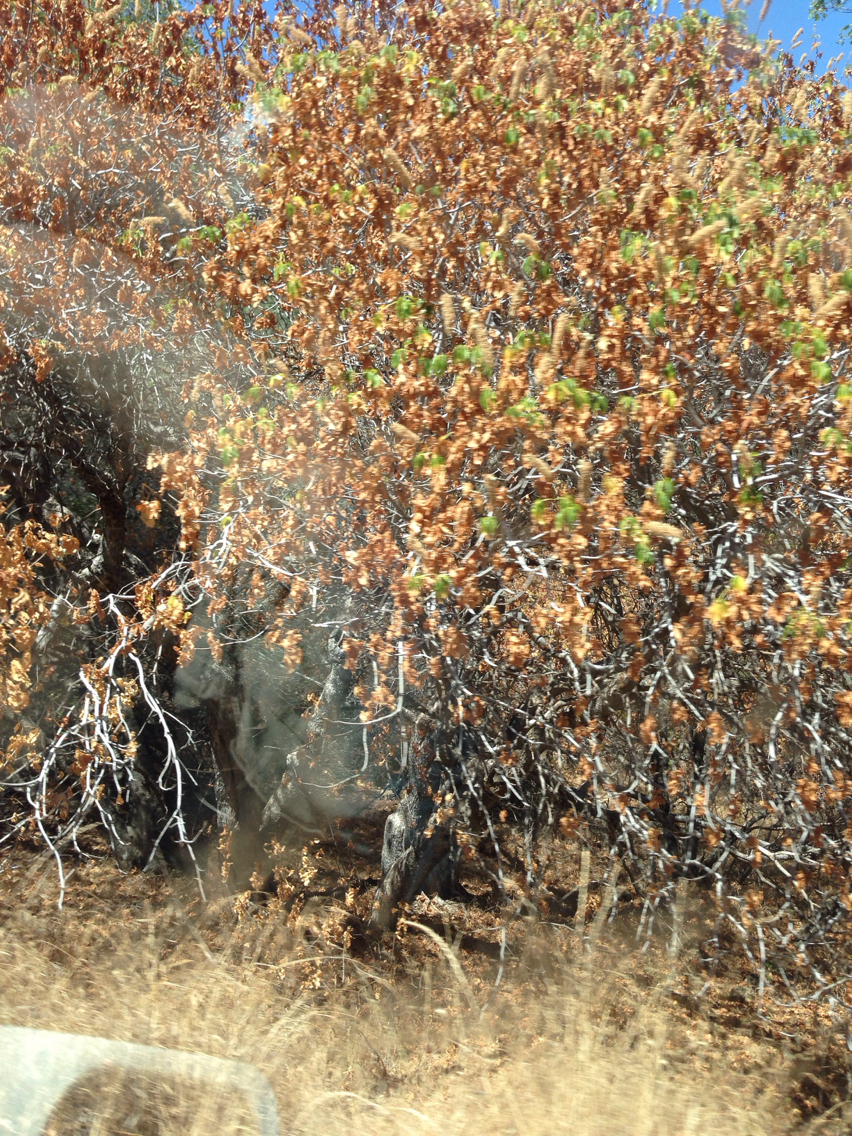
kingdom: Plantae
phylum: Tracheophyta
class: Magnoliopsida
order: Sapindales
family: Sapindaceae
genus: Aesculus
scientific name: Aesculus californica
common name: California buckeye
